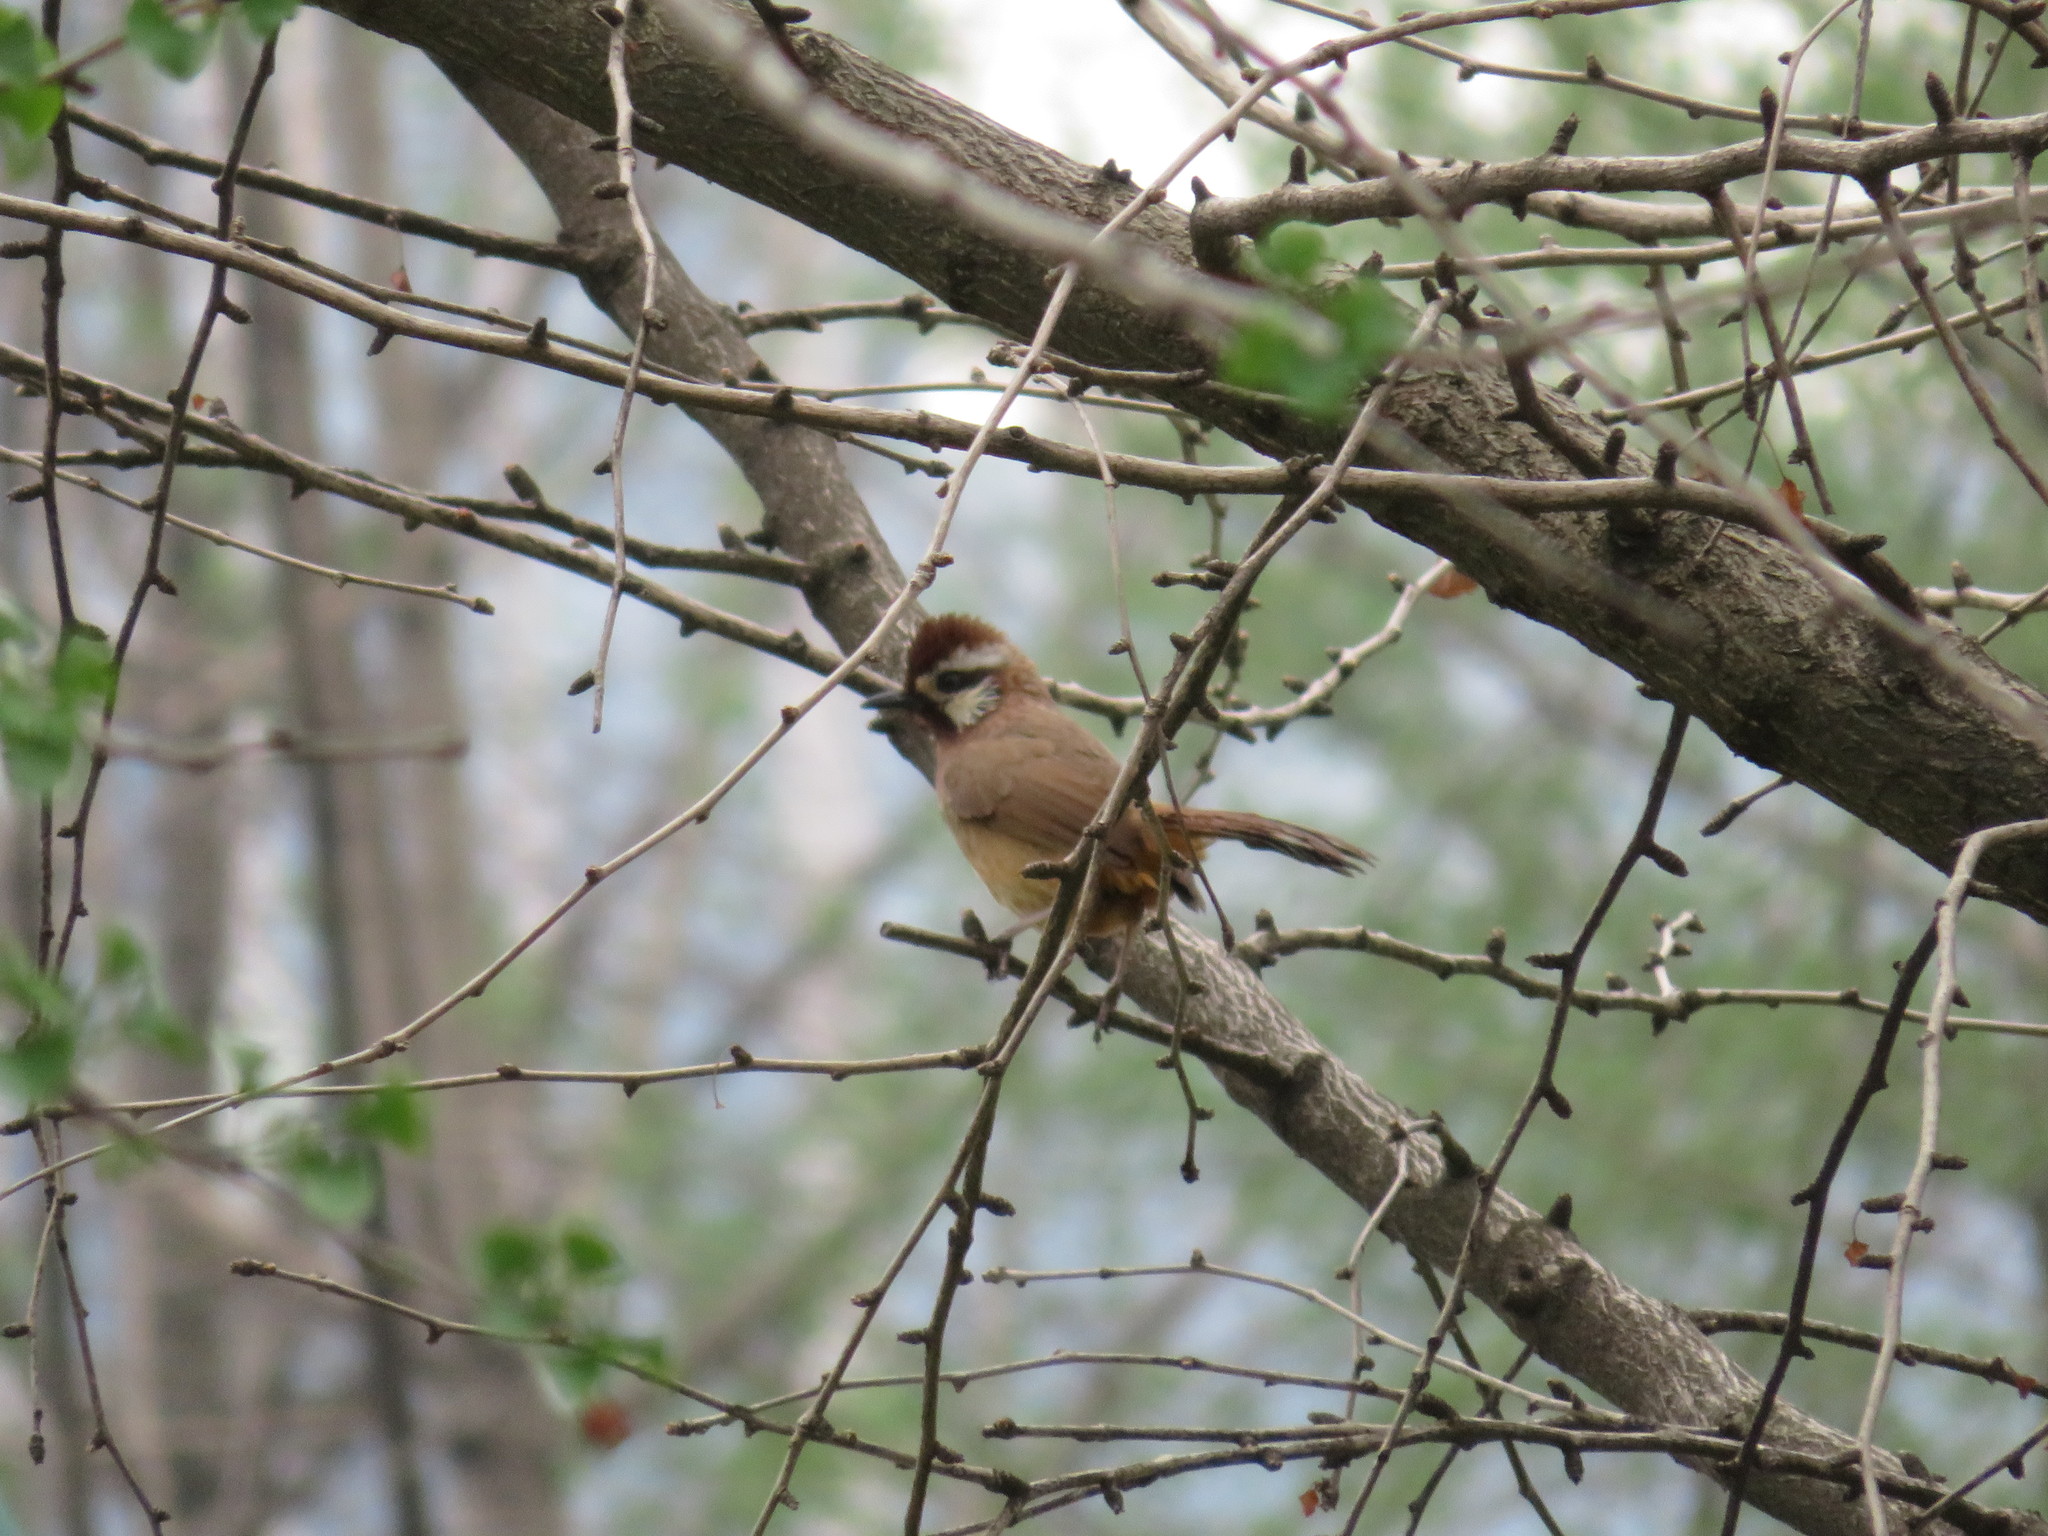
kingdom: Animalia
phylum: Chordata
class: Aves
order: Passeriformes
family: Leiothrichidae
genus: Pterorhinus
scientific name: Pterorhinus sannio
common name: White-browed laughingthrush
